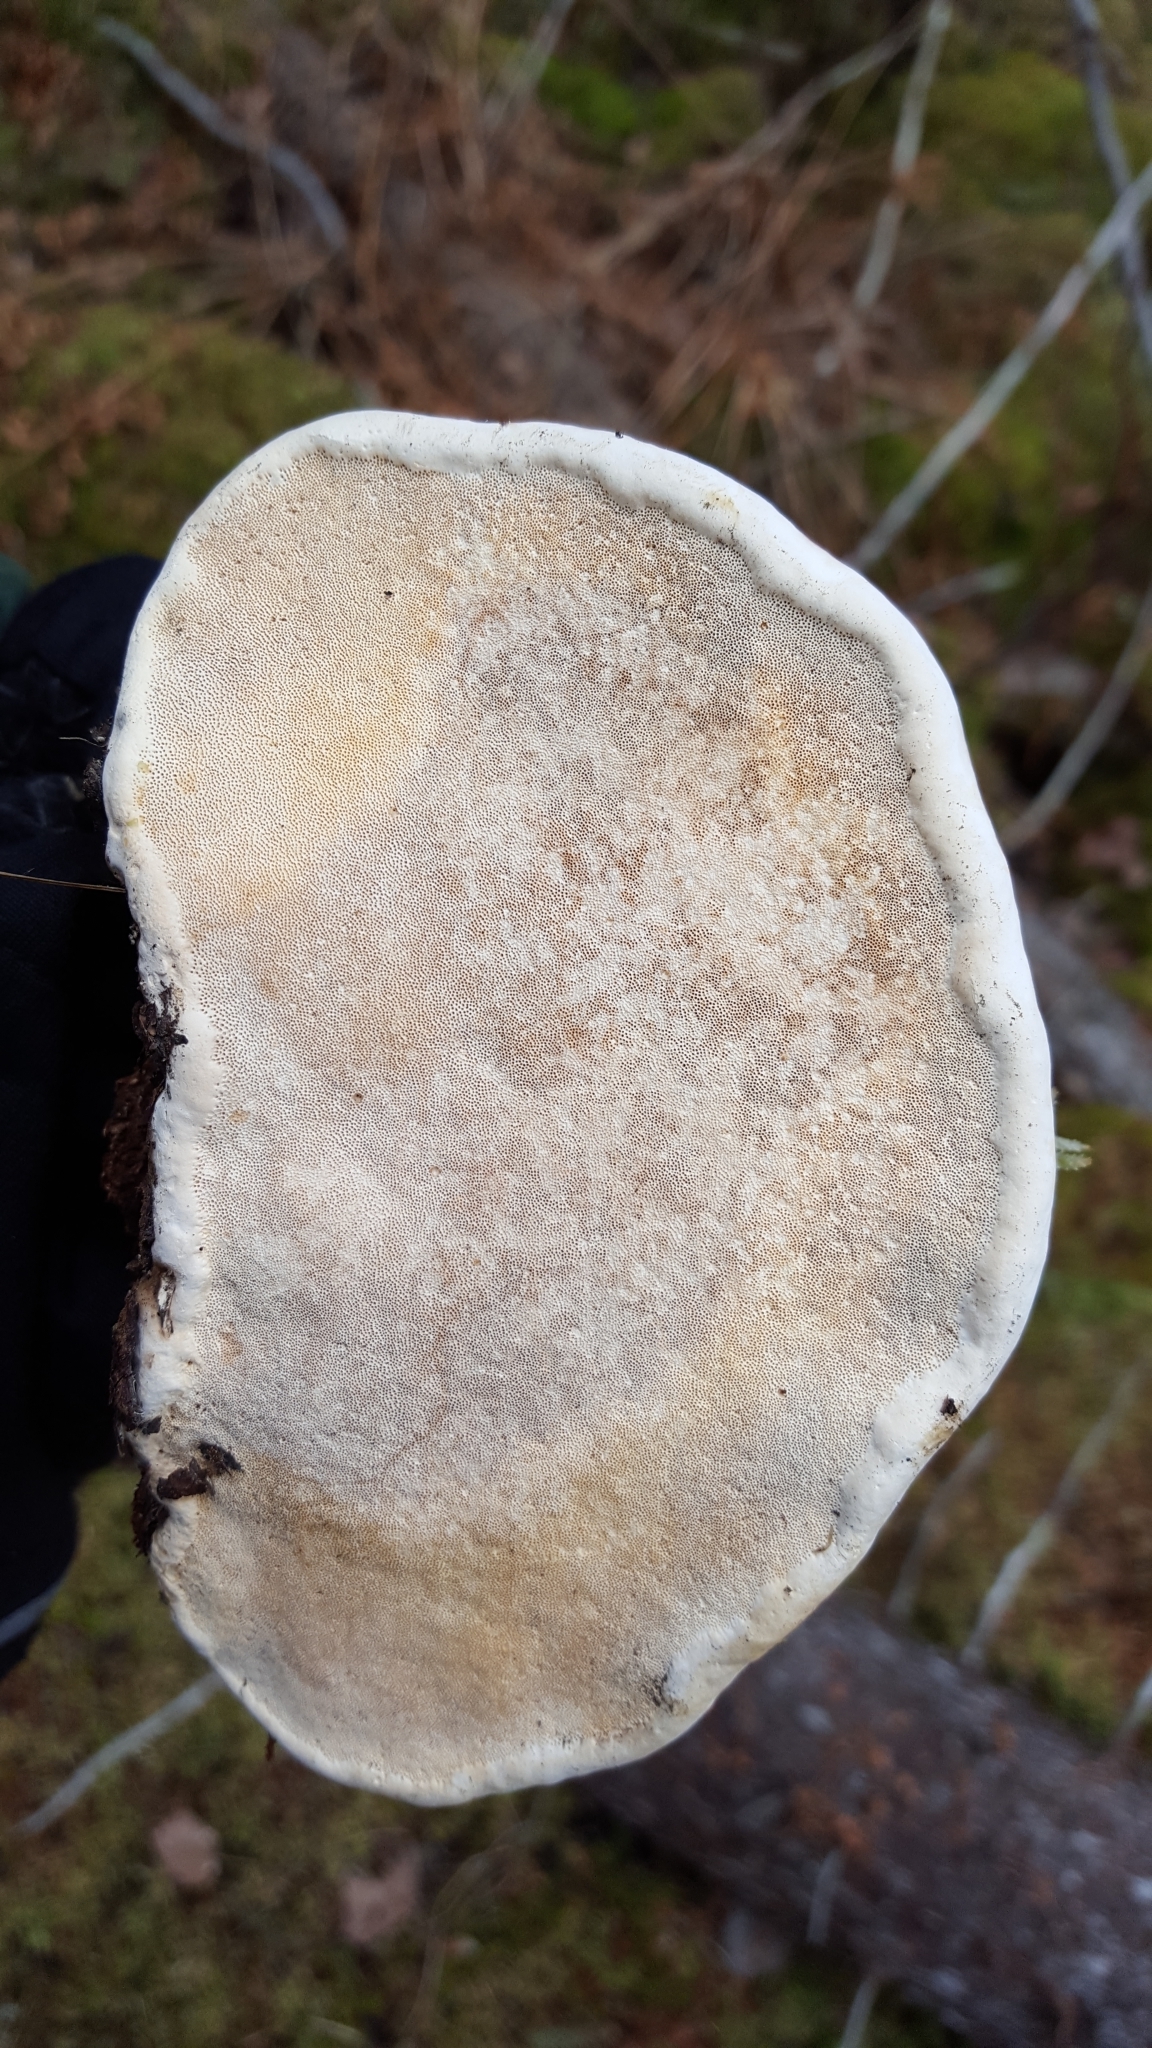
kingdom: Fungi
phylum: Basidiomycota
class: Agaricomycetes
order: Polyporales
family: Fomitopsidaceae
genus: Fomitopsis
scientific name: Fomitopsis mounceae
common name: Northern red belt
